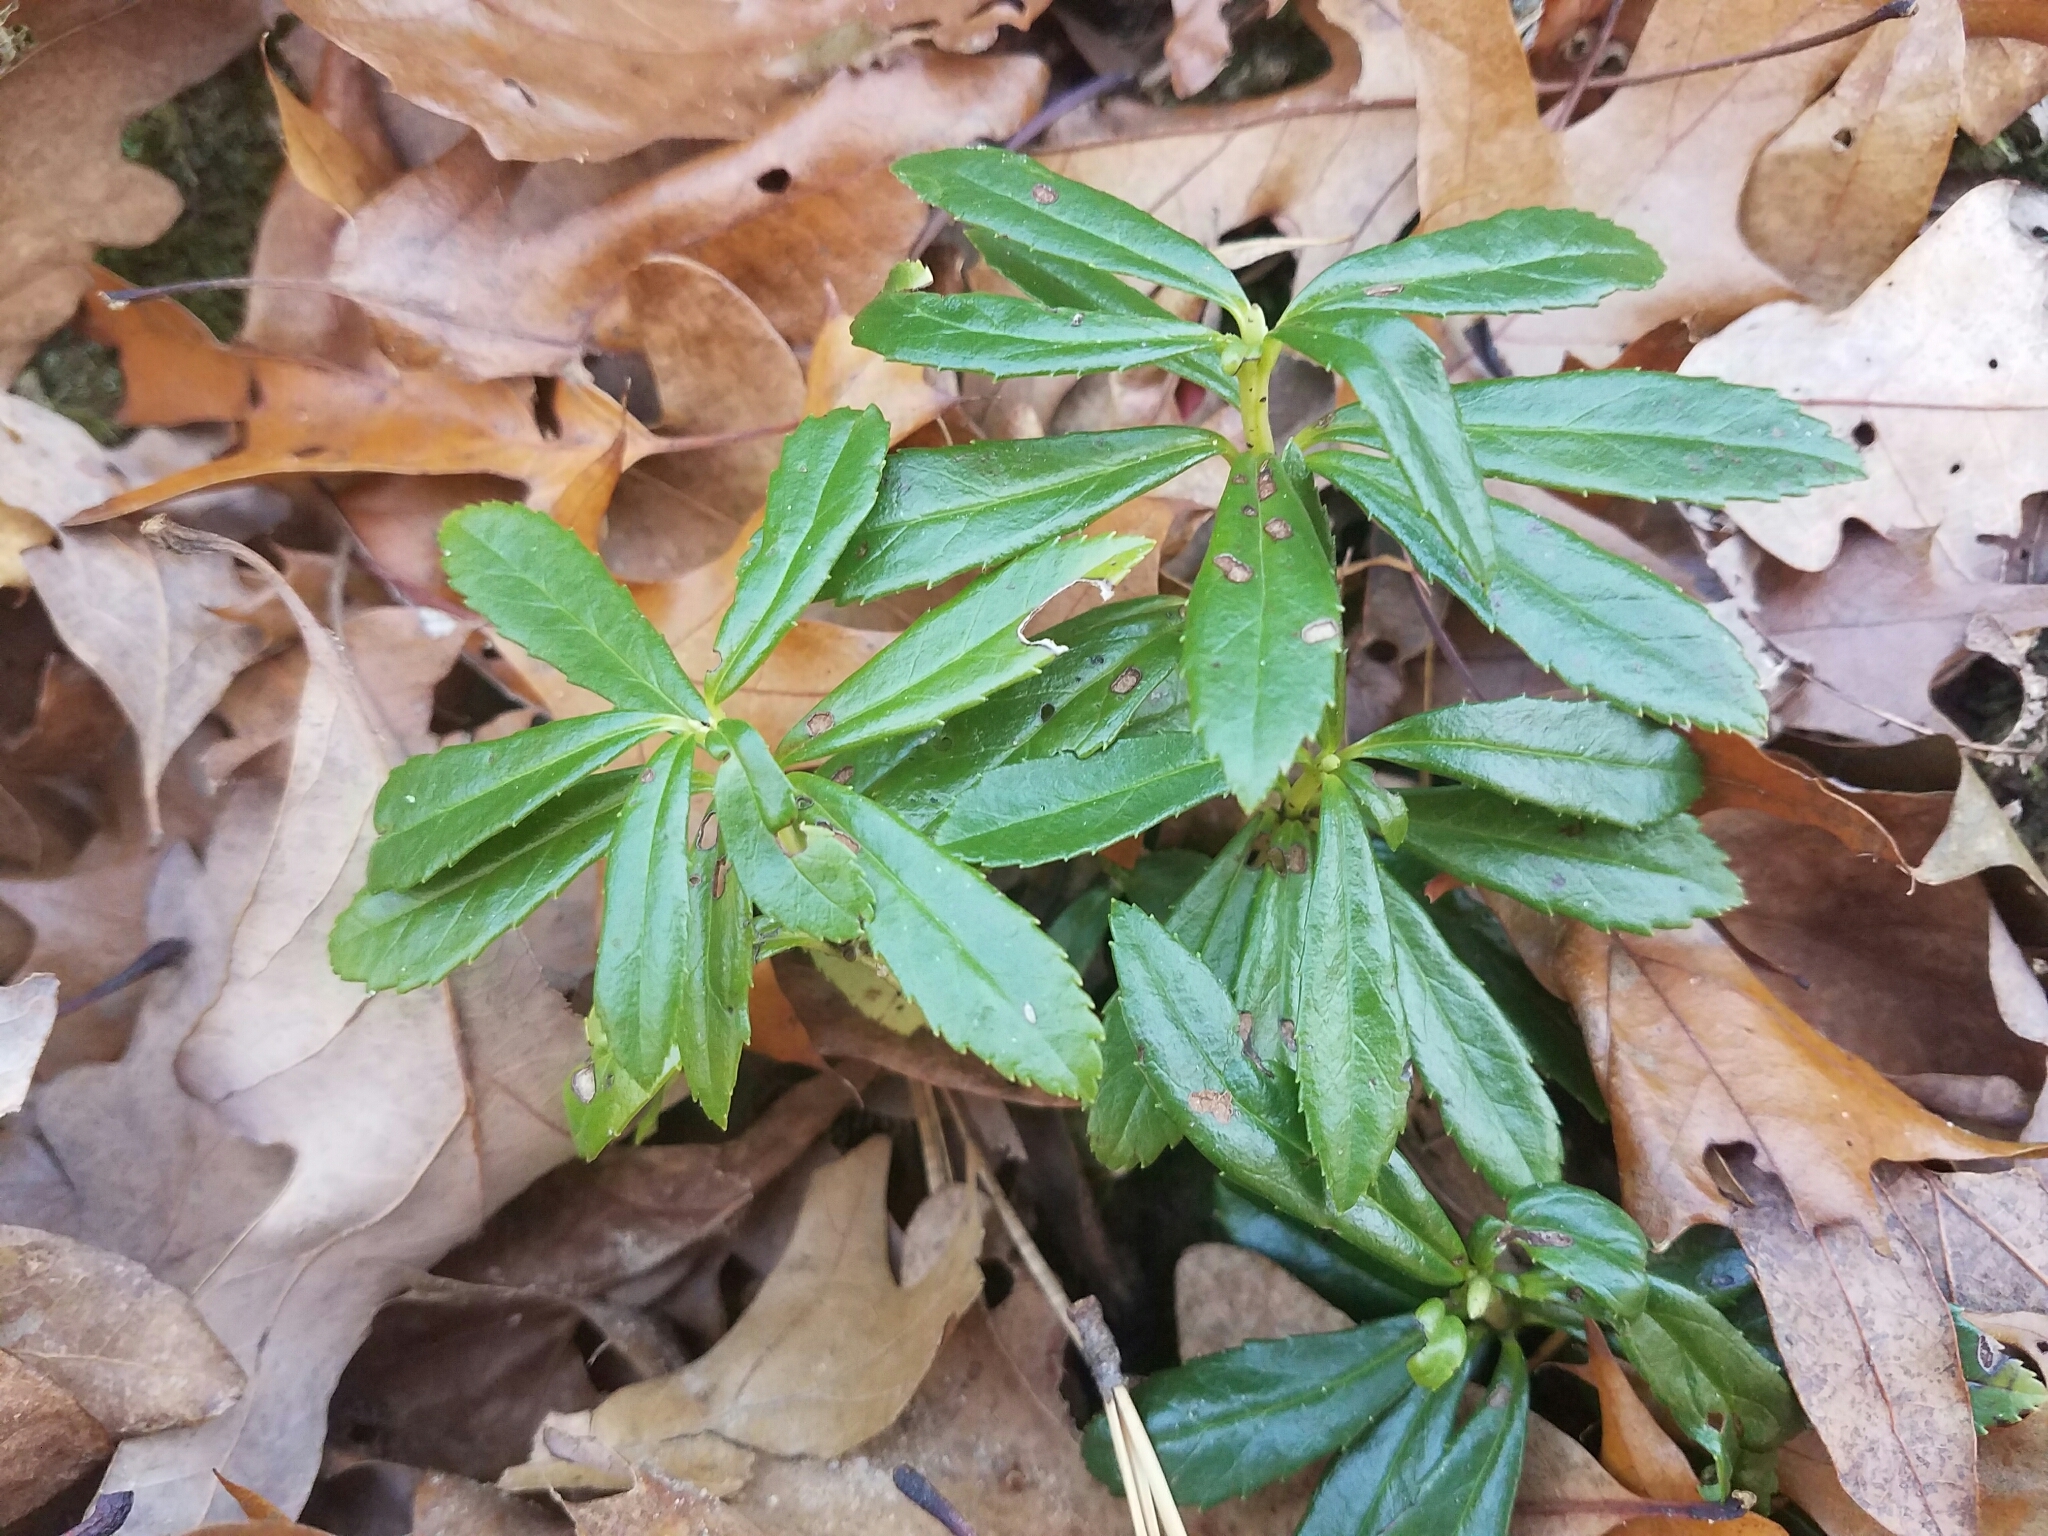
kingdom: Plantae
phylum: Tracheophyta
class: Magnoliopsida
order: Ericales
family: Ericaceae
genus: Chimaphila
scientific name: Chimaphila umbellata
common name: Pipsissewa
